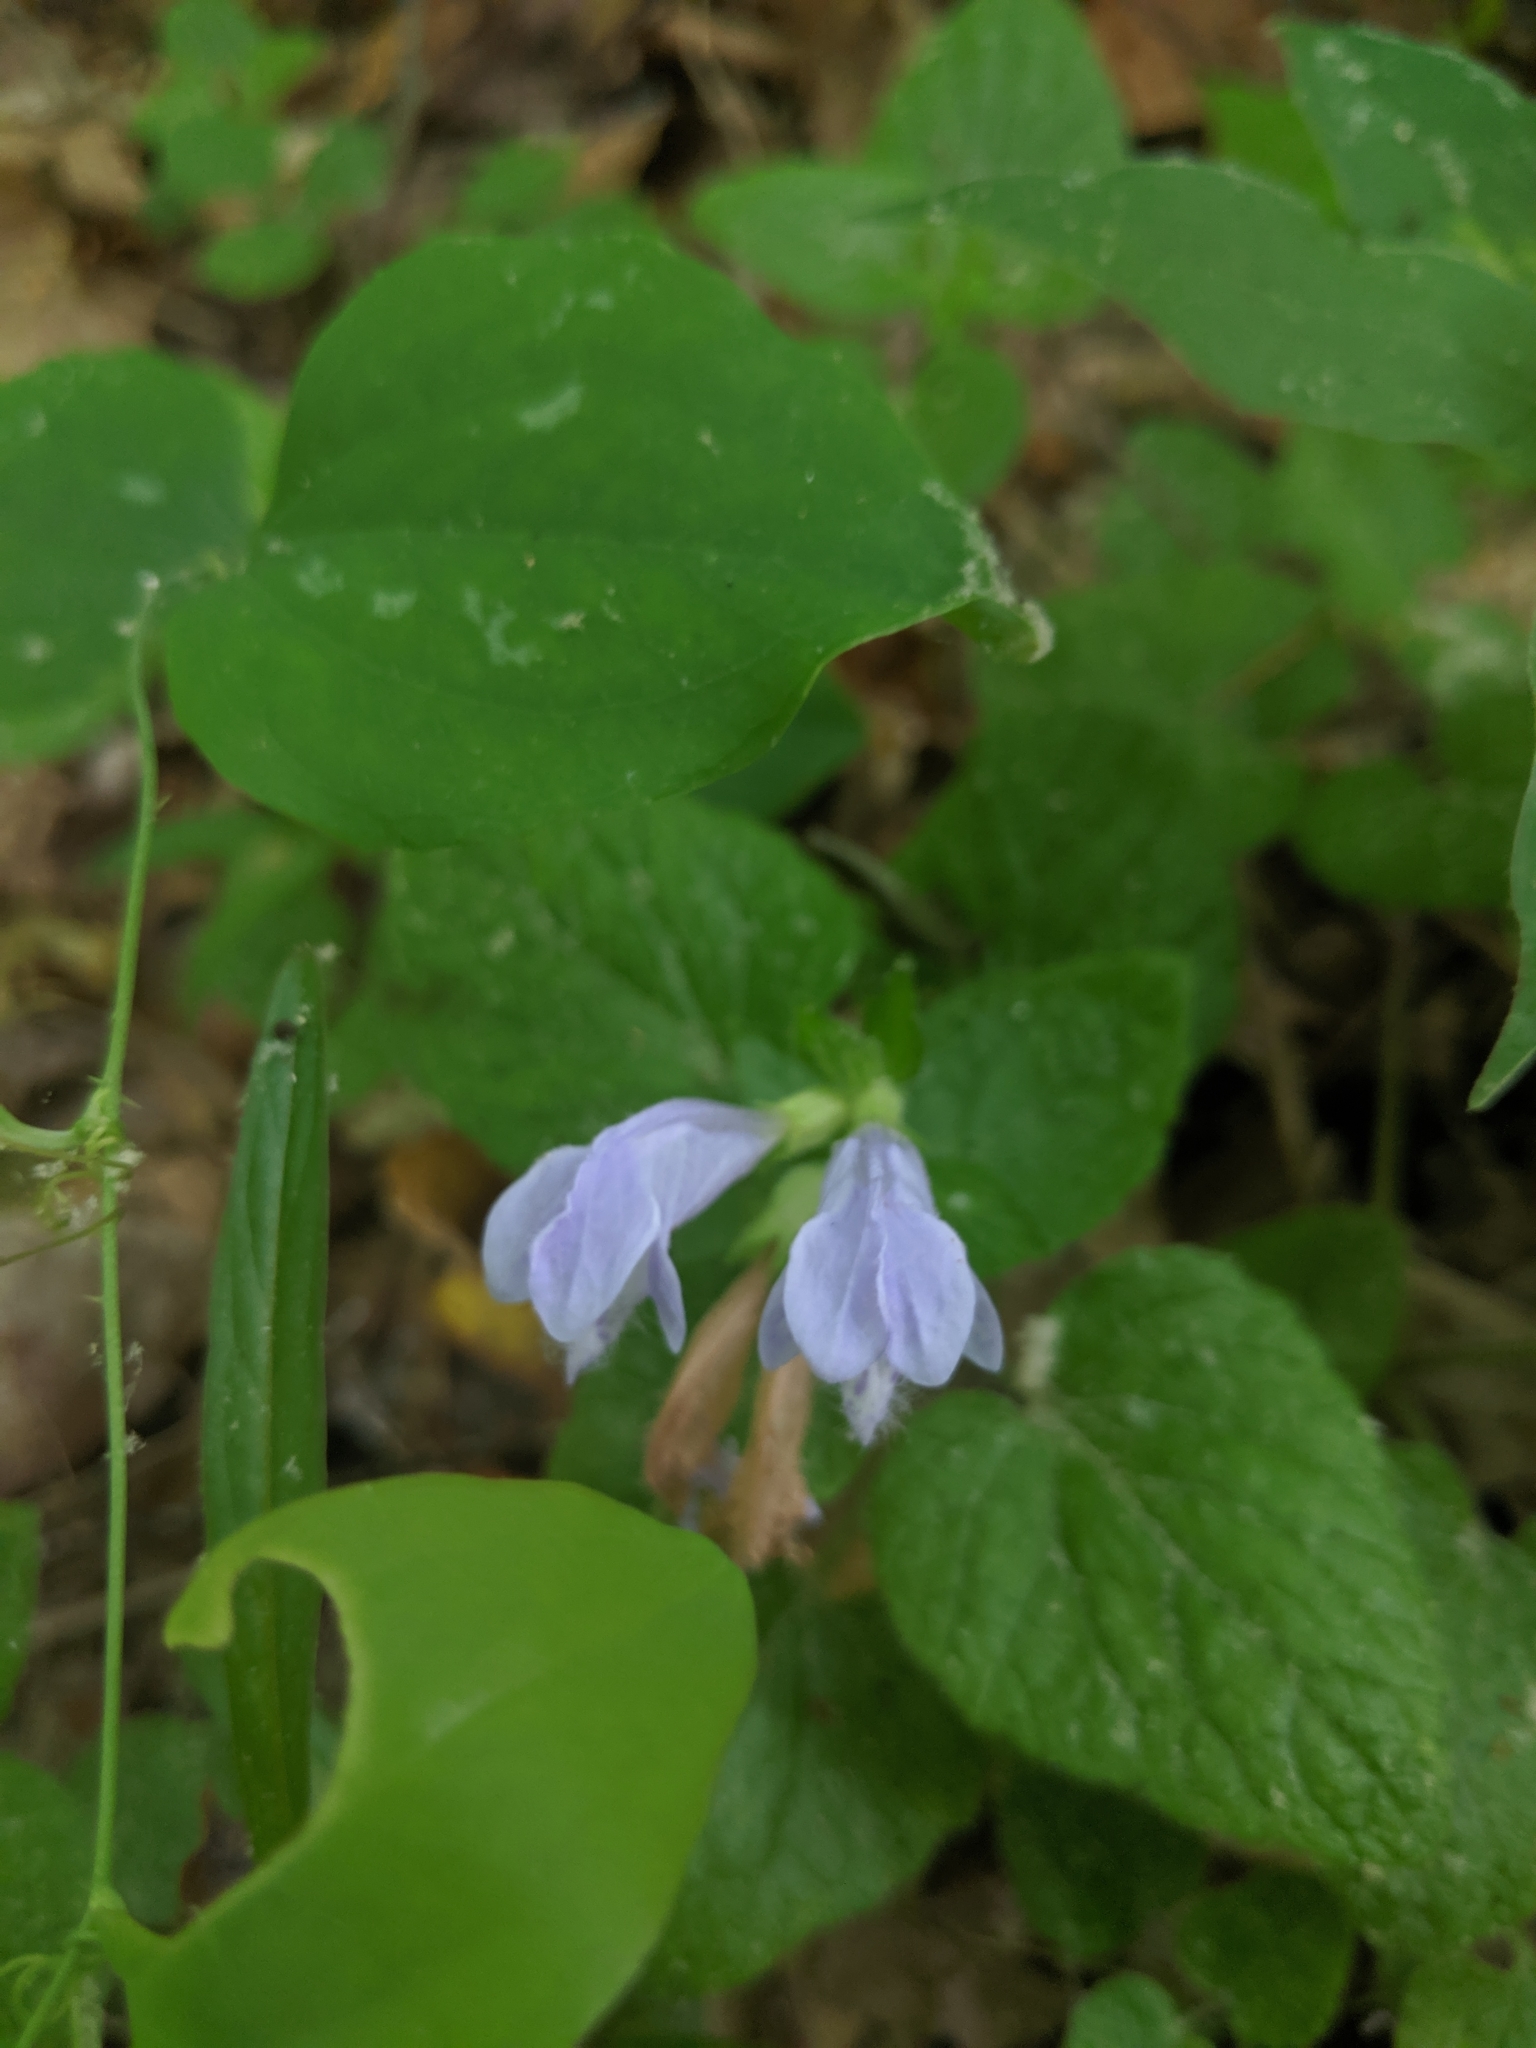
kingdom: Plantae
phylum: Tracheophyta
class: Magnoliopsida
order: Lamiales
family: Lamiaceae
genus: Meehania
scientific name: Meehania cordata
